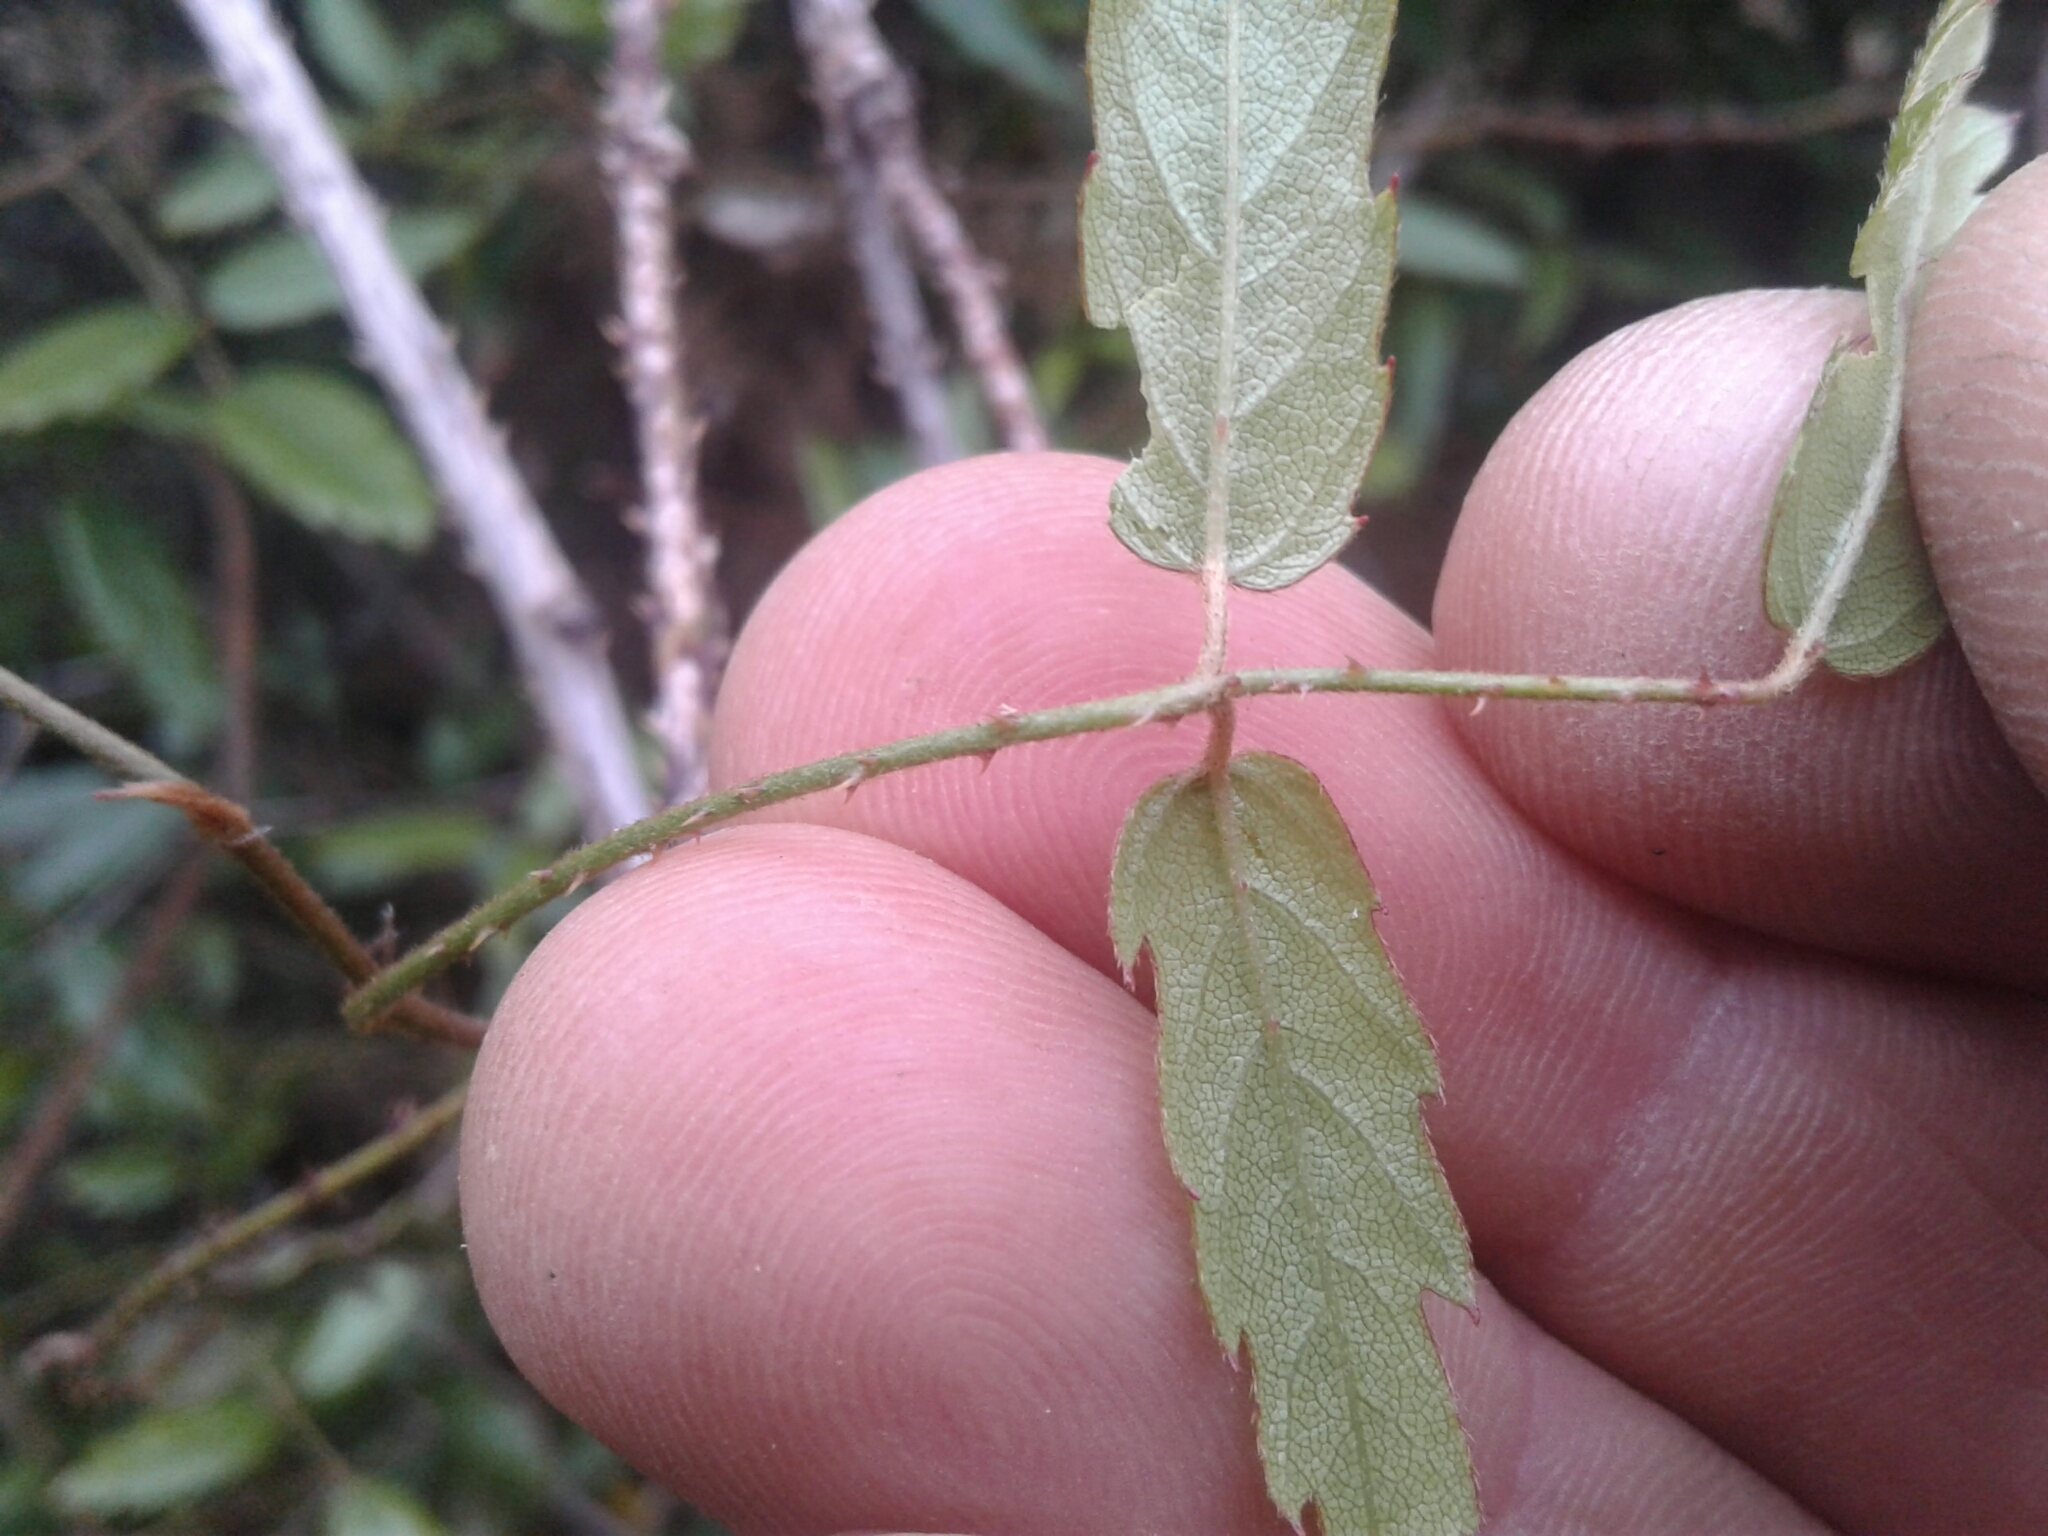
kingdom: Plantae
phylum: Tracheophyta
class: Magnoliopsida
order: Rosales
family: Rosaceae
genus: Rubus
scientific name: Rubus schmidelioides
